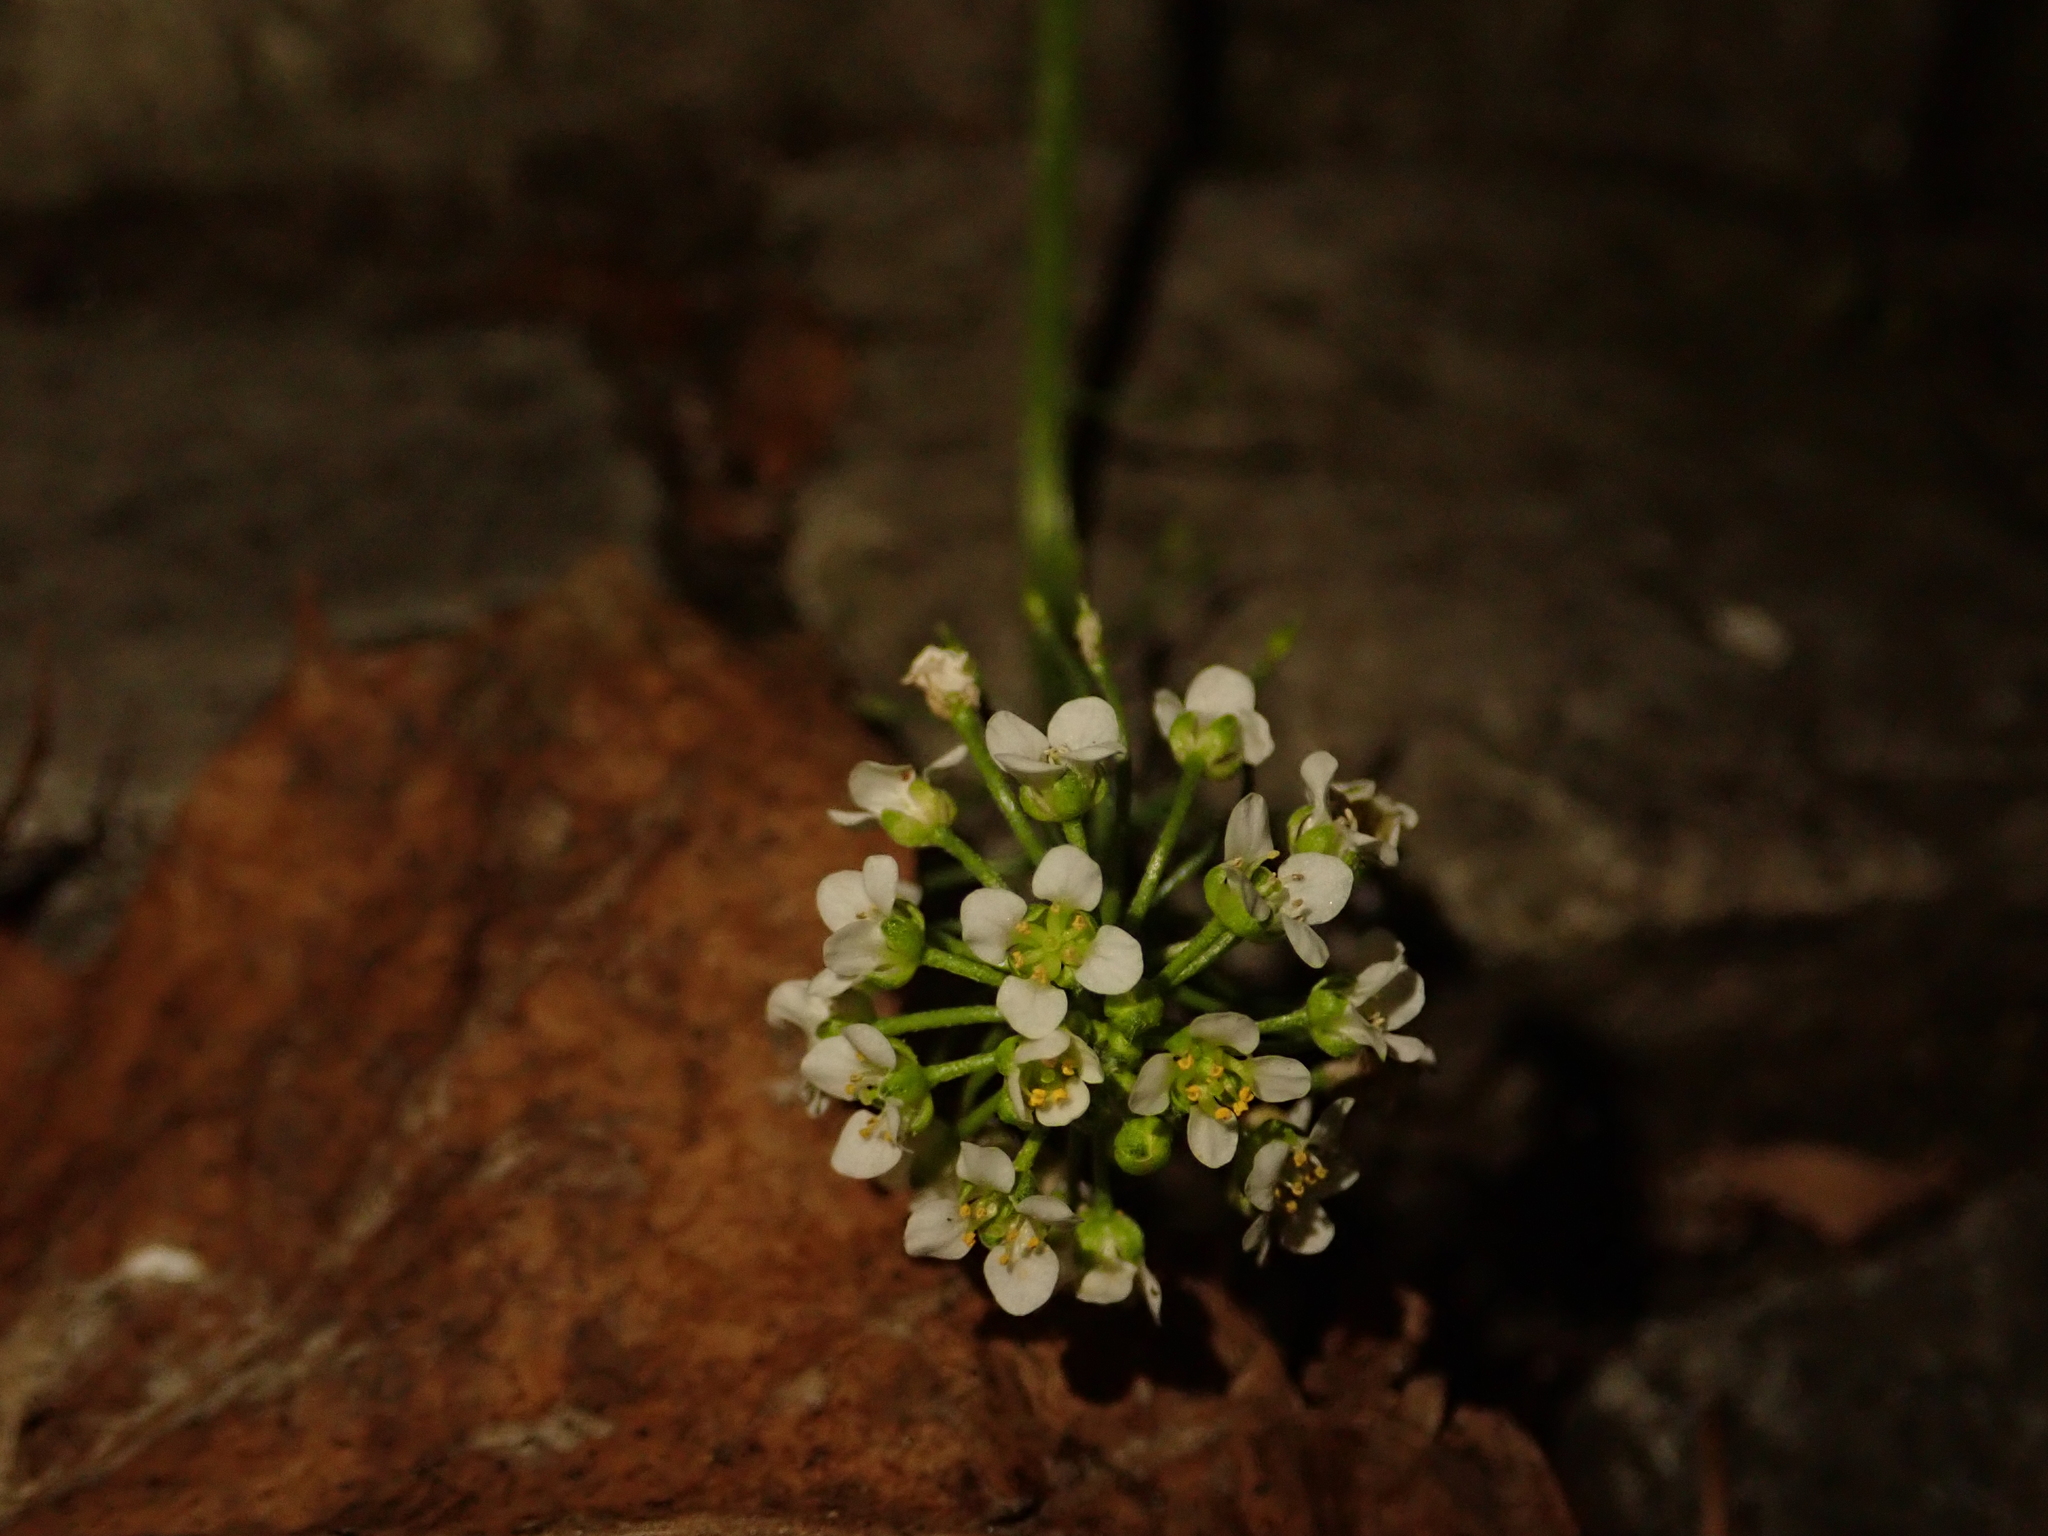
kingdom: Plantae
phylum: Tracheophyta
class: Magnoliopsida
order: Brassicales
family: Brassicaceae
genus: Lobularia
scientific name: Lobularia maritima
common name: Sweet alison
